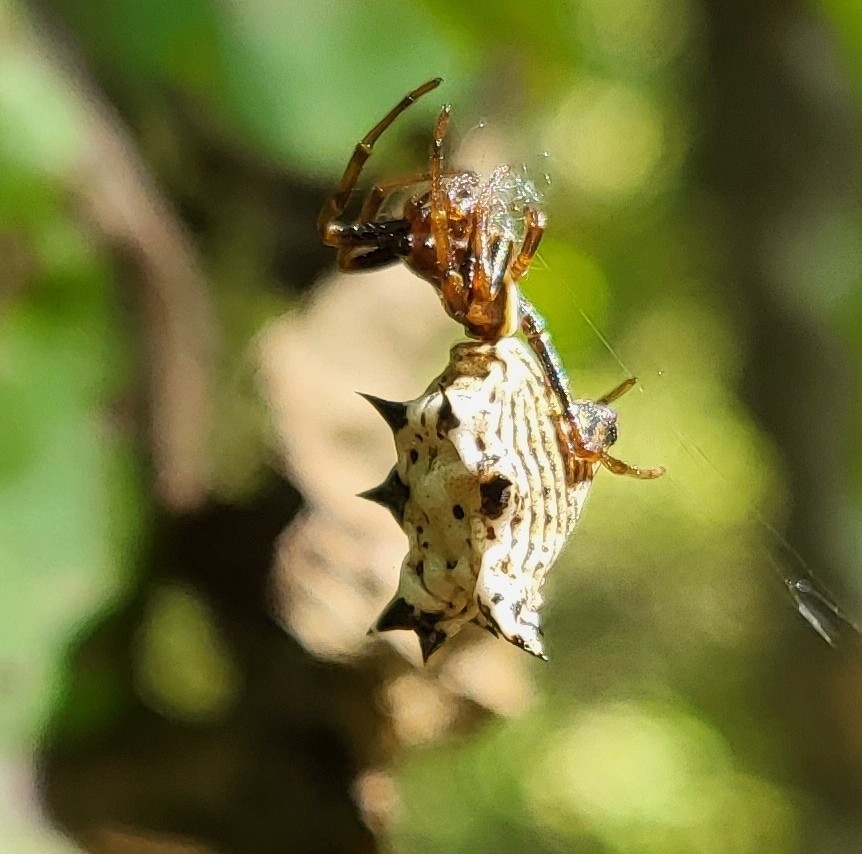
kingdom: Animalia
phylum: Arthropoda
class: Arachnida
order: Araneae
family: Araneidae
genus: Micrathena
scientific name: Micrathena gracilis
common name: Orb weavers
